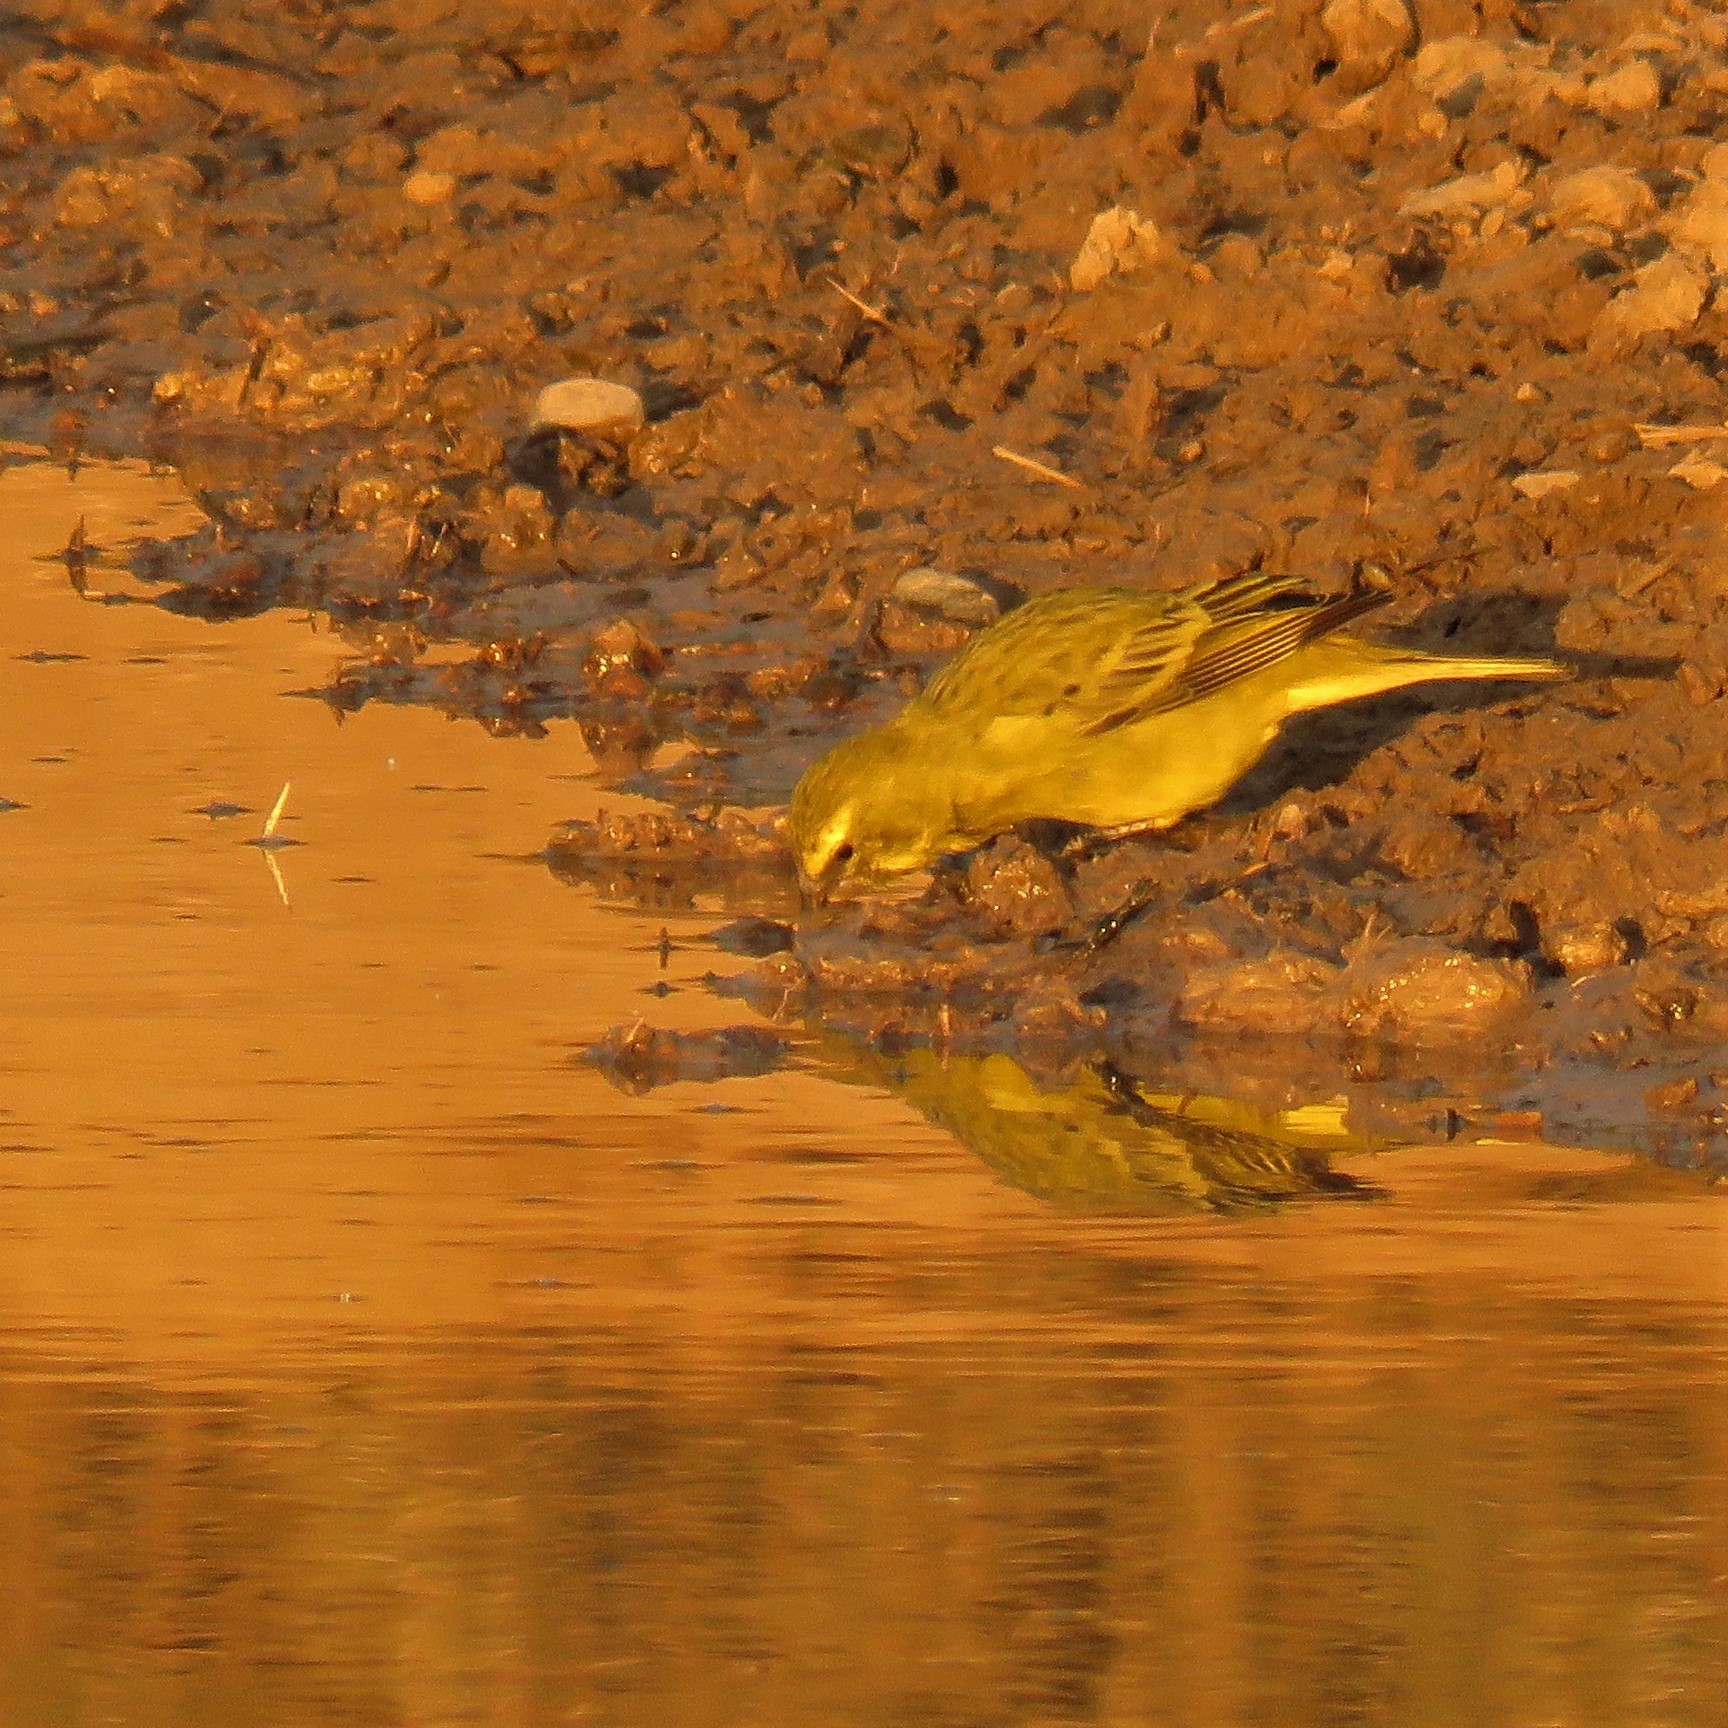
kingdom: Animalia
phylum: Chordata
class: Aves
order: Passeriformes
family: Fringillidae
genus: Crithagra
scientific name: Crithagra sulphurata
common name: Brimstone canary
